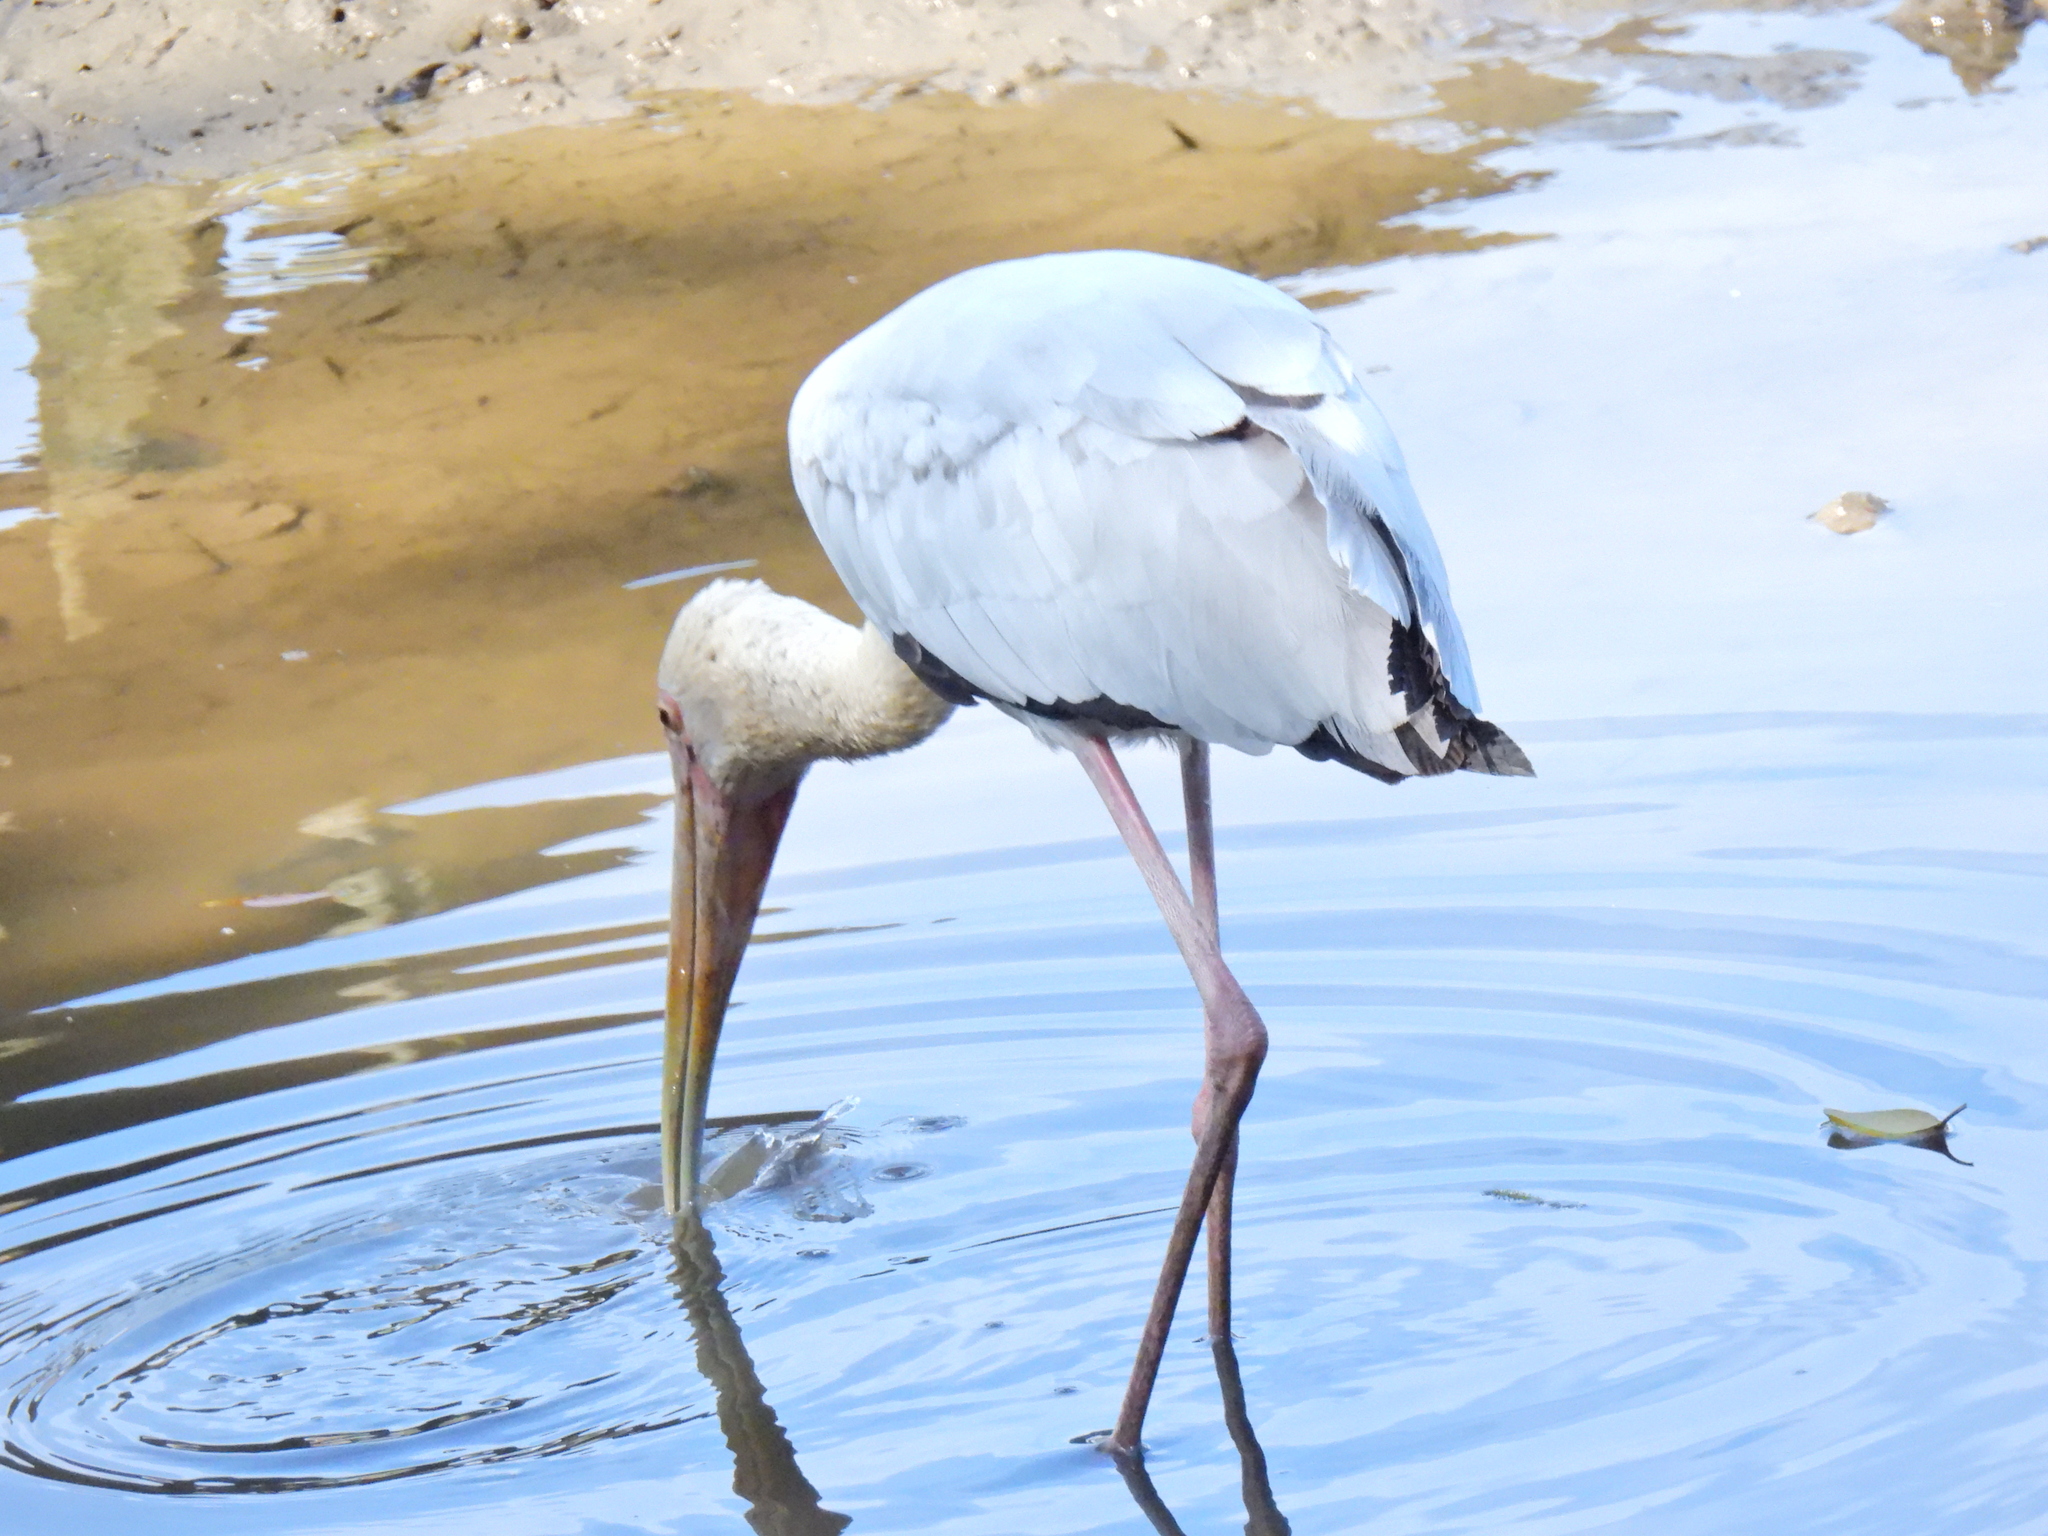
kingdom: Animalia
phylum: Chordata
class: Aves
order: Ciconiiformes
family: Ciconiidae
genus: Mycteria
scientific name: Mycteria cinerea
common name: Milky stork
